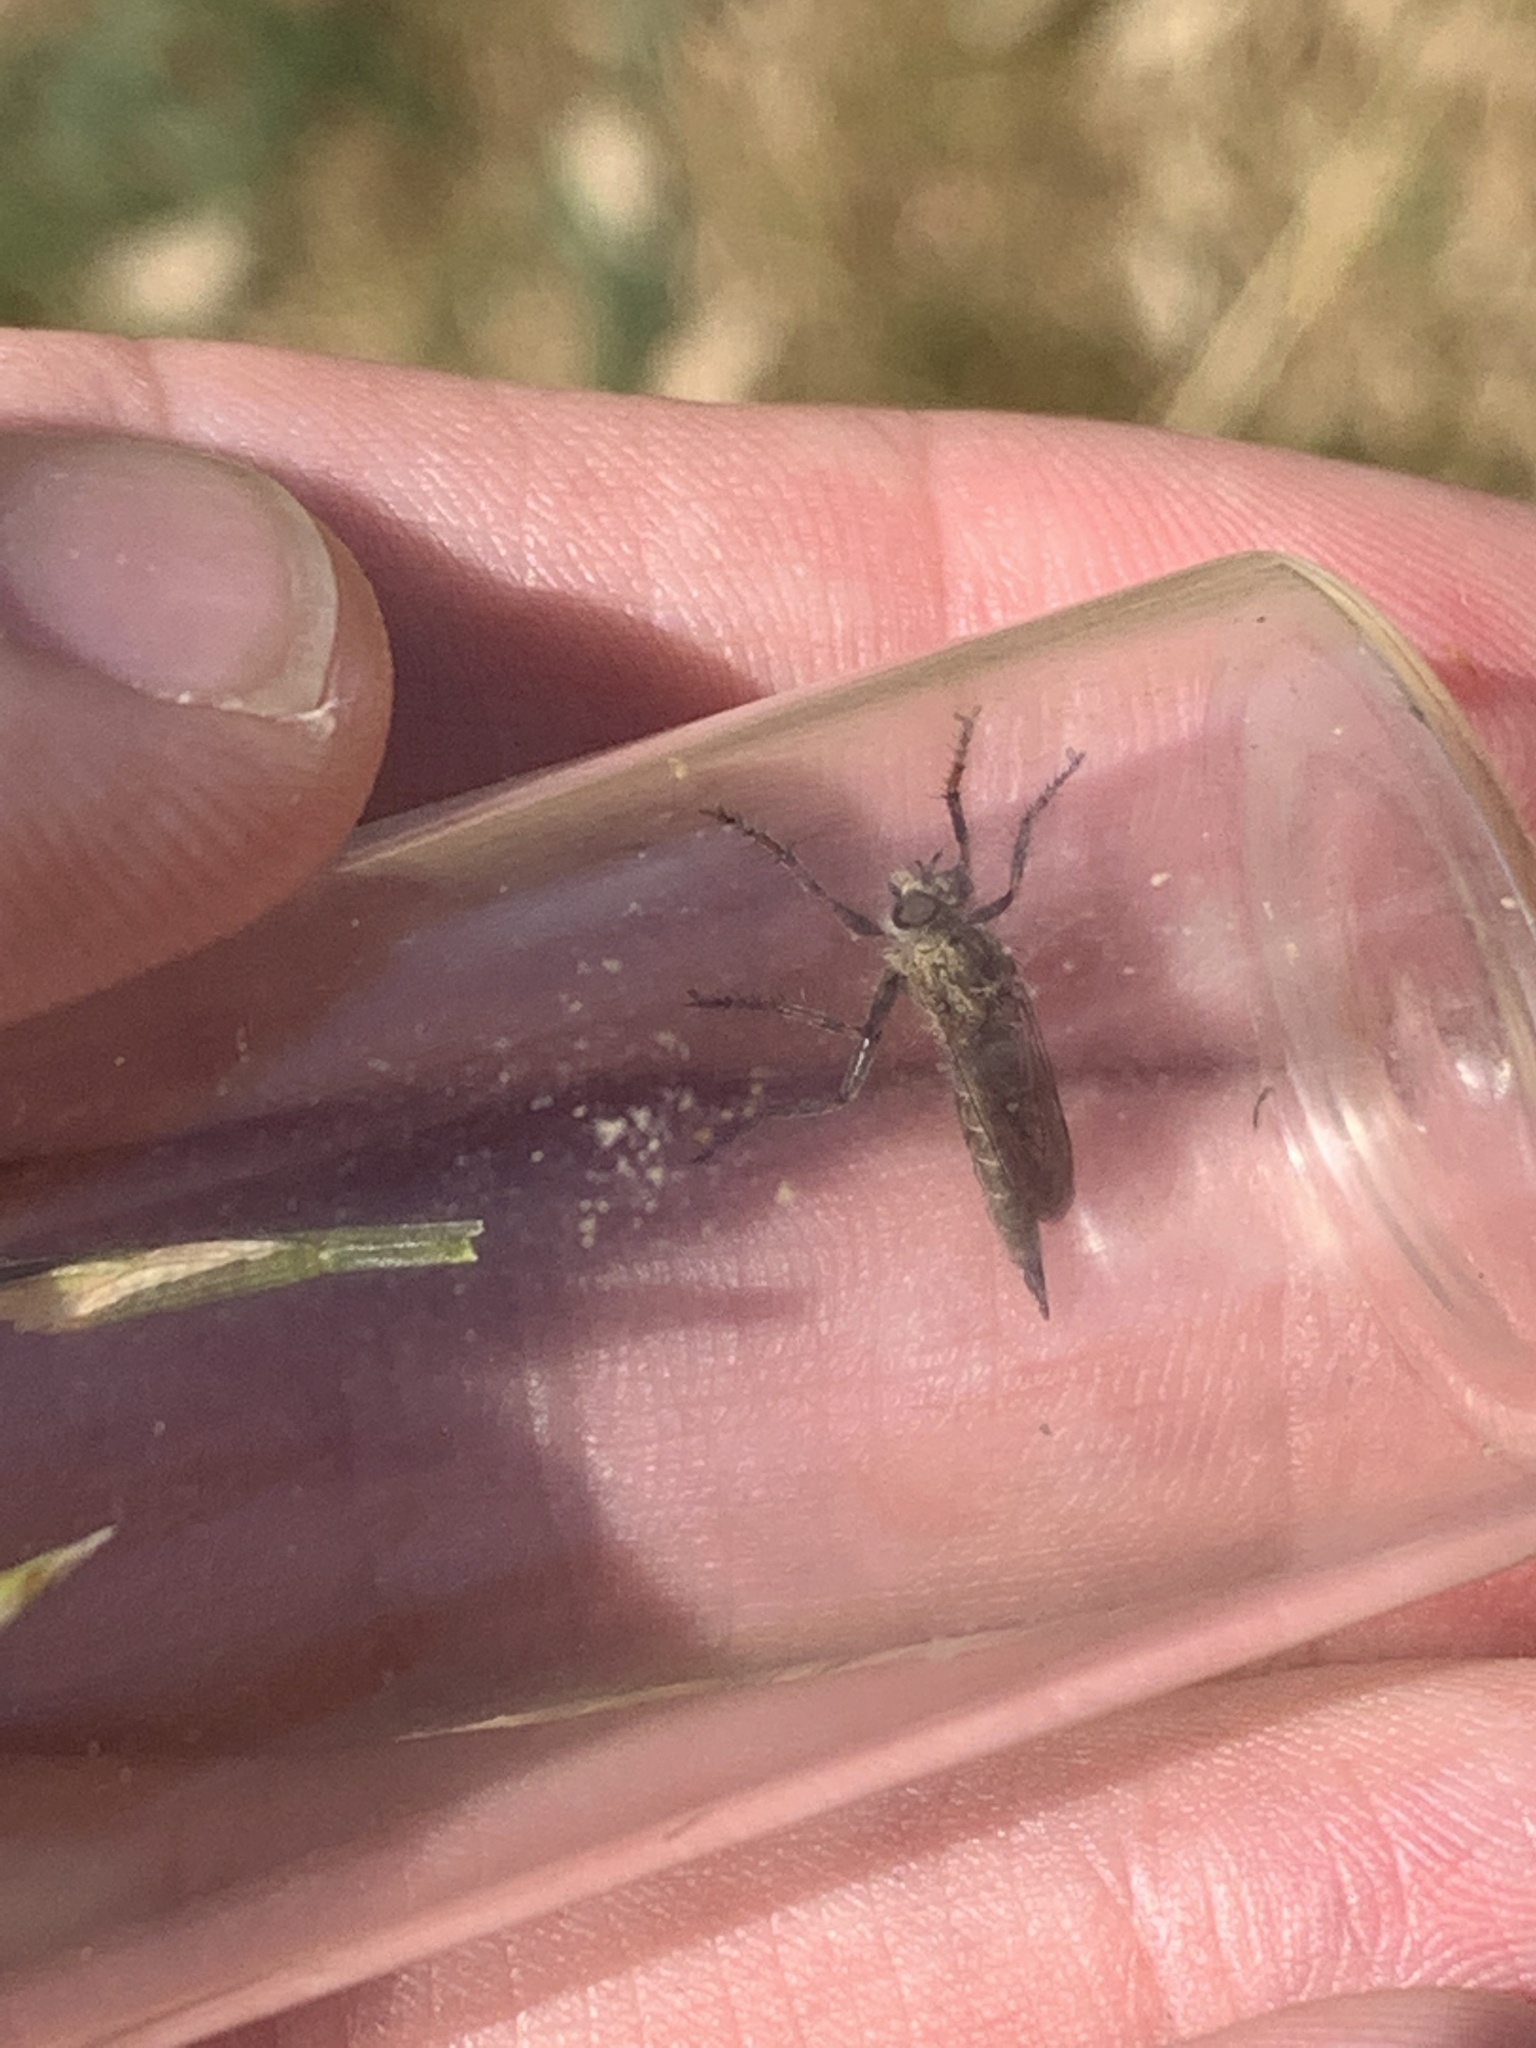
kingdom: Animalia
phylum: Arthropoda
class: Insecta
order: Diptera
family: Asilidae
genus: Epitriptus
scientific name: Epitriptus cingulatus
